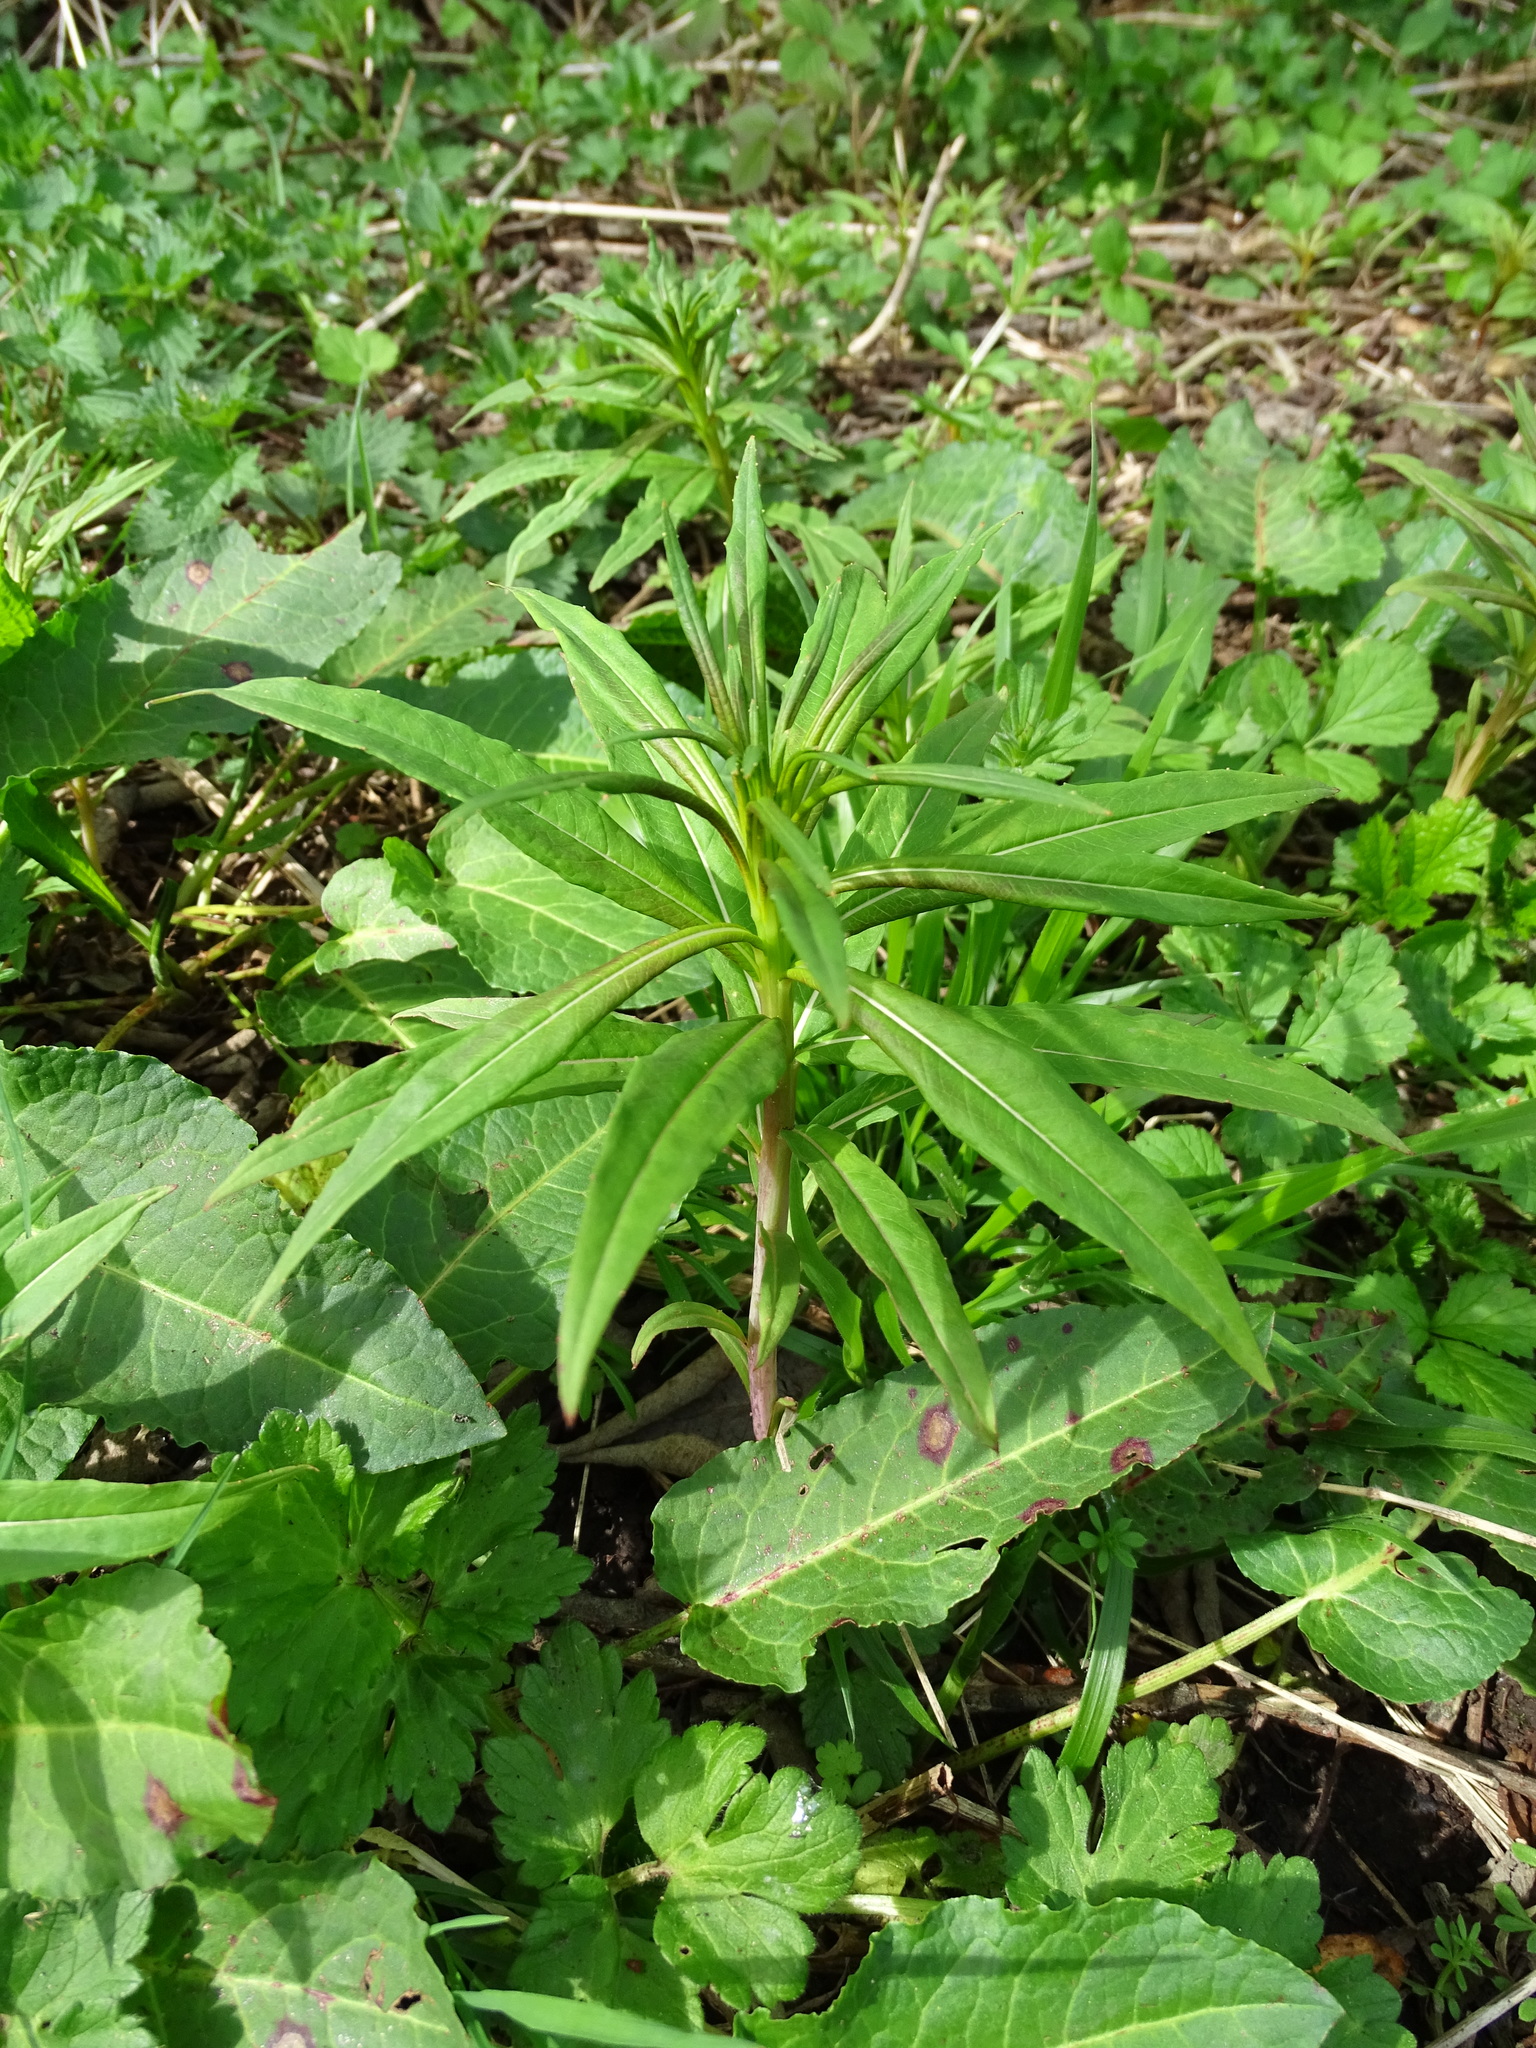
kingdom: Plantae
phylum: Tracheophyta
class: Magnoliopsida
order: Myrtales
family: Onagraceae
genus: Chamaenerion
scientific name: Chamaenerion angustifolium
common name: Fireweed
